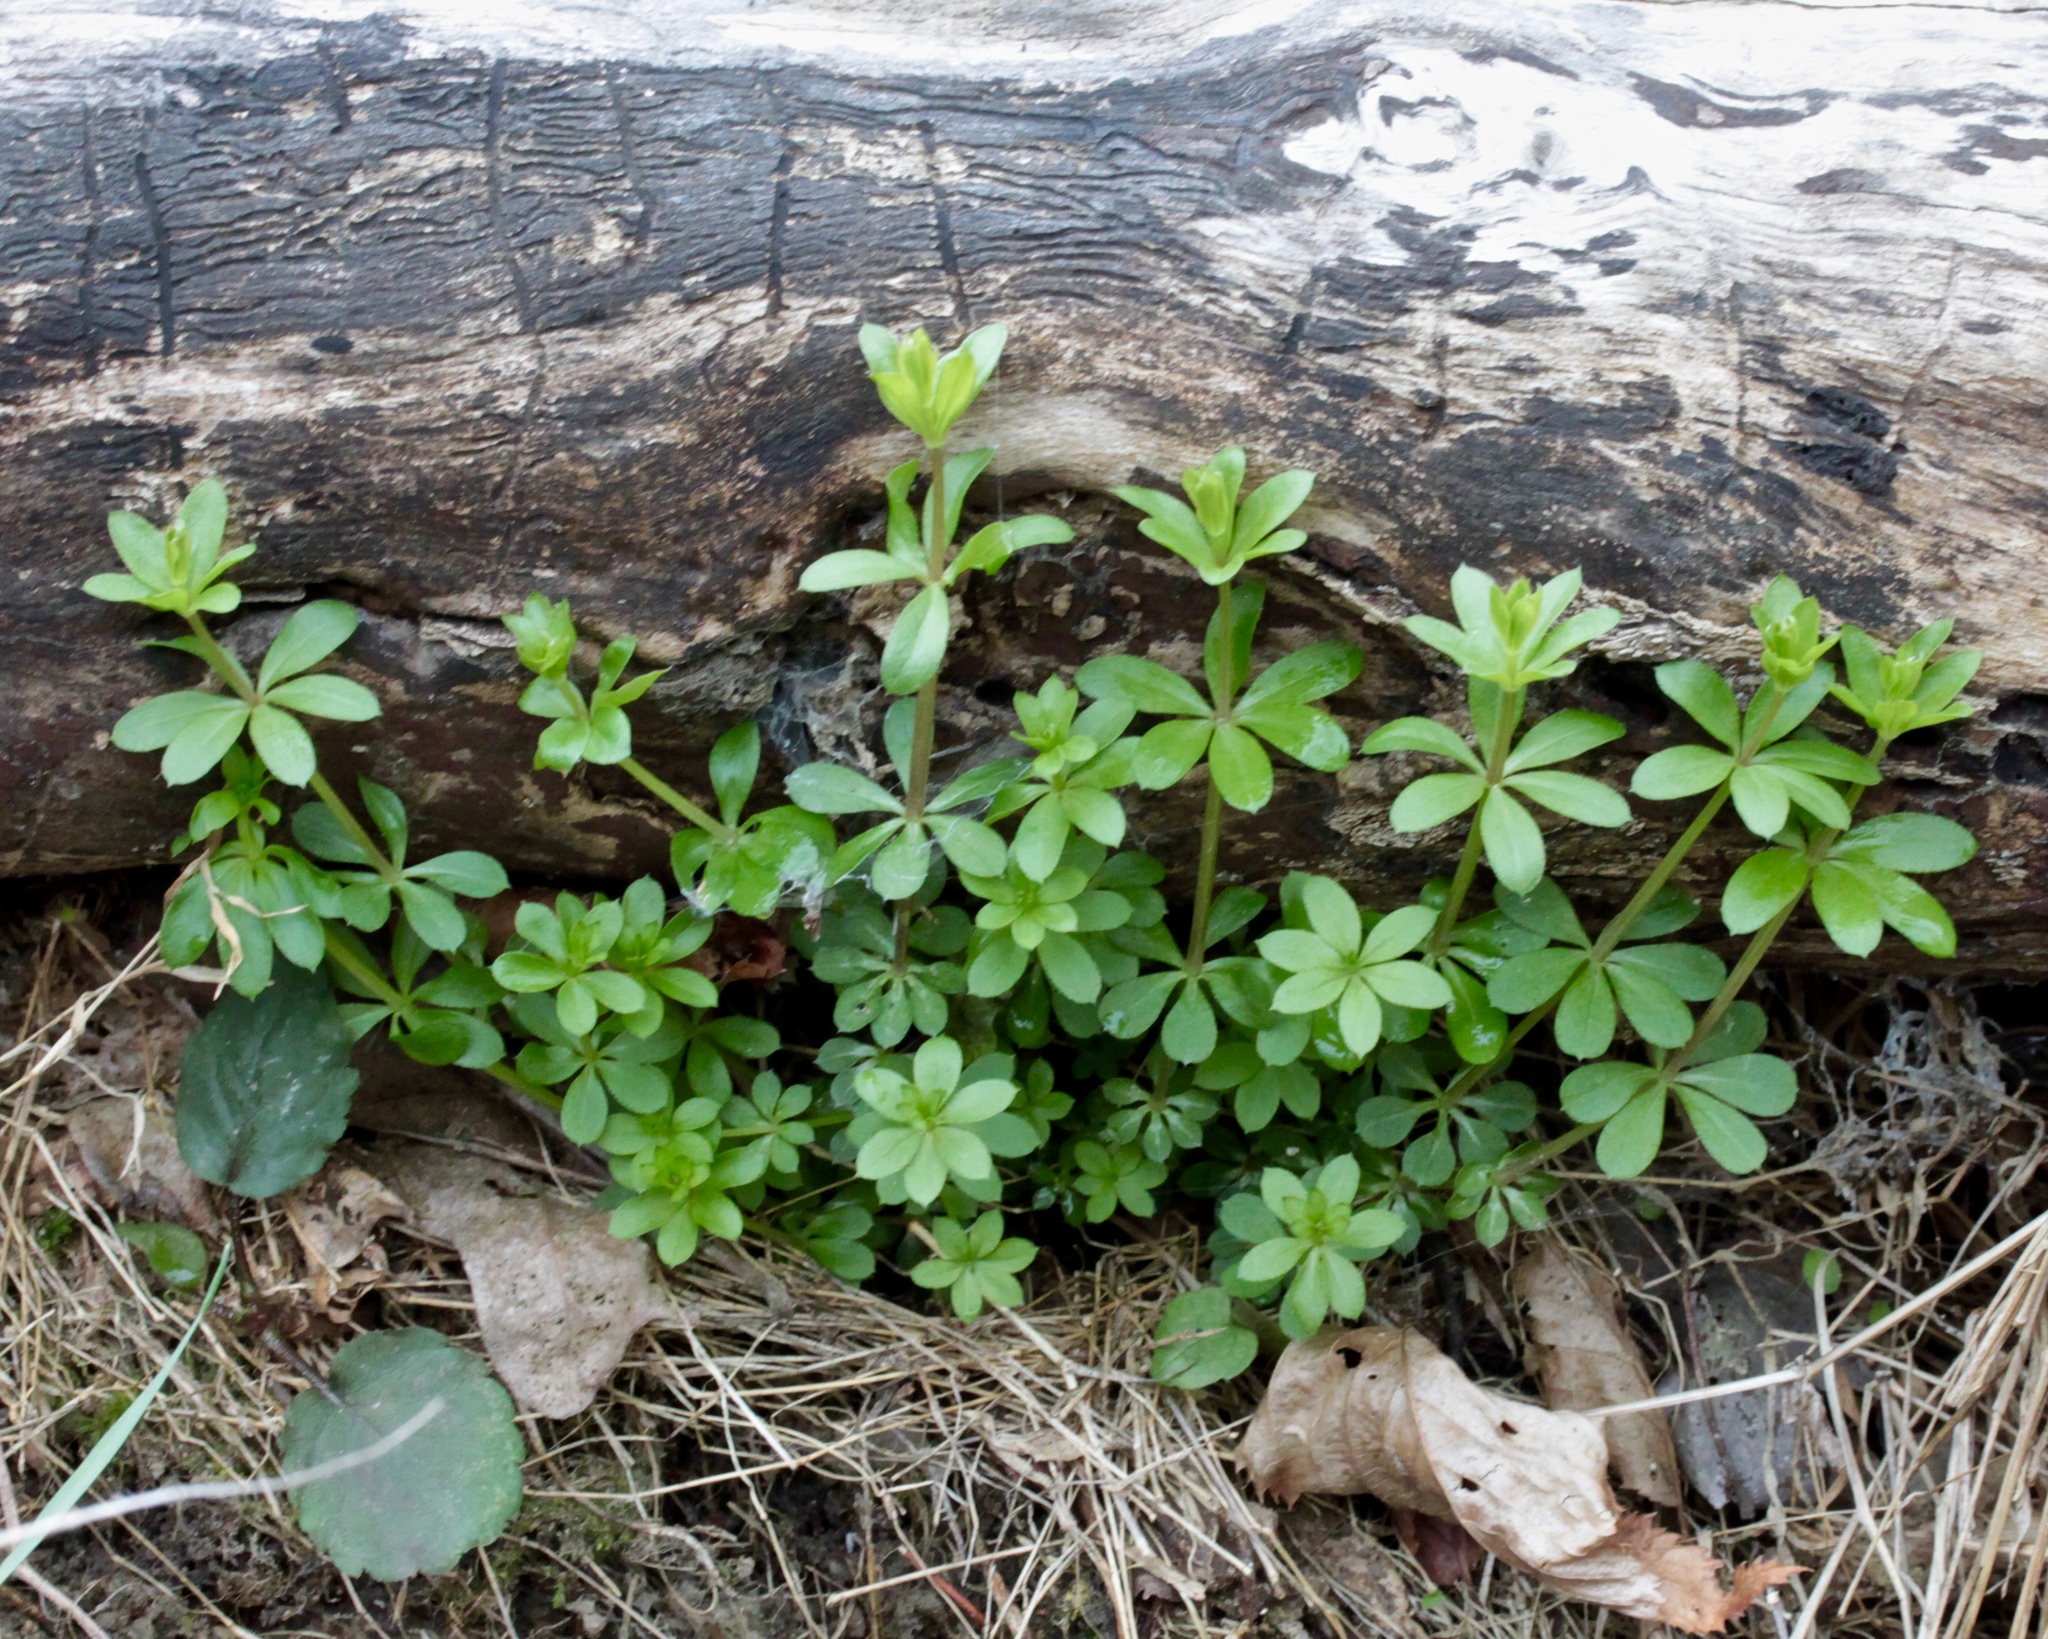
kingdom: Plantae
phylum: Tracheophyta
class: Magnoliopsida
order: Gentianales
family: Rubiaceae
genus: Galium
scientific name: Galium triflorum
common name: Fragrant bedstraw
